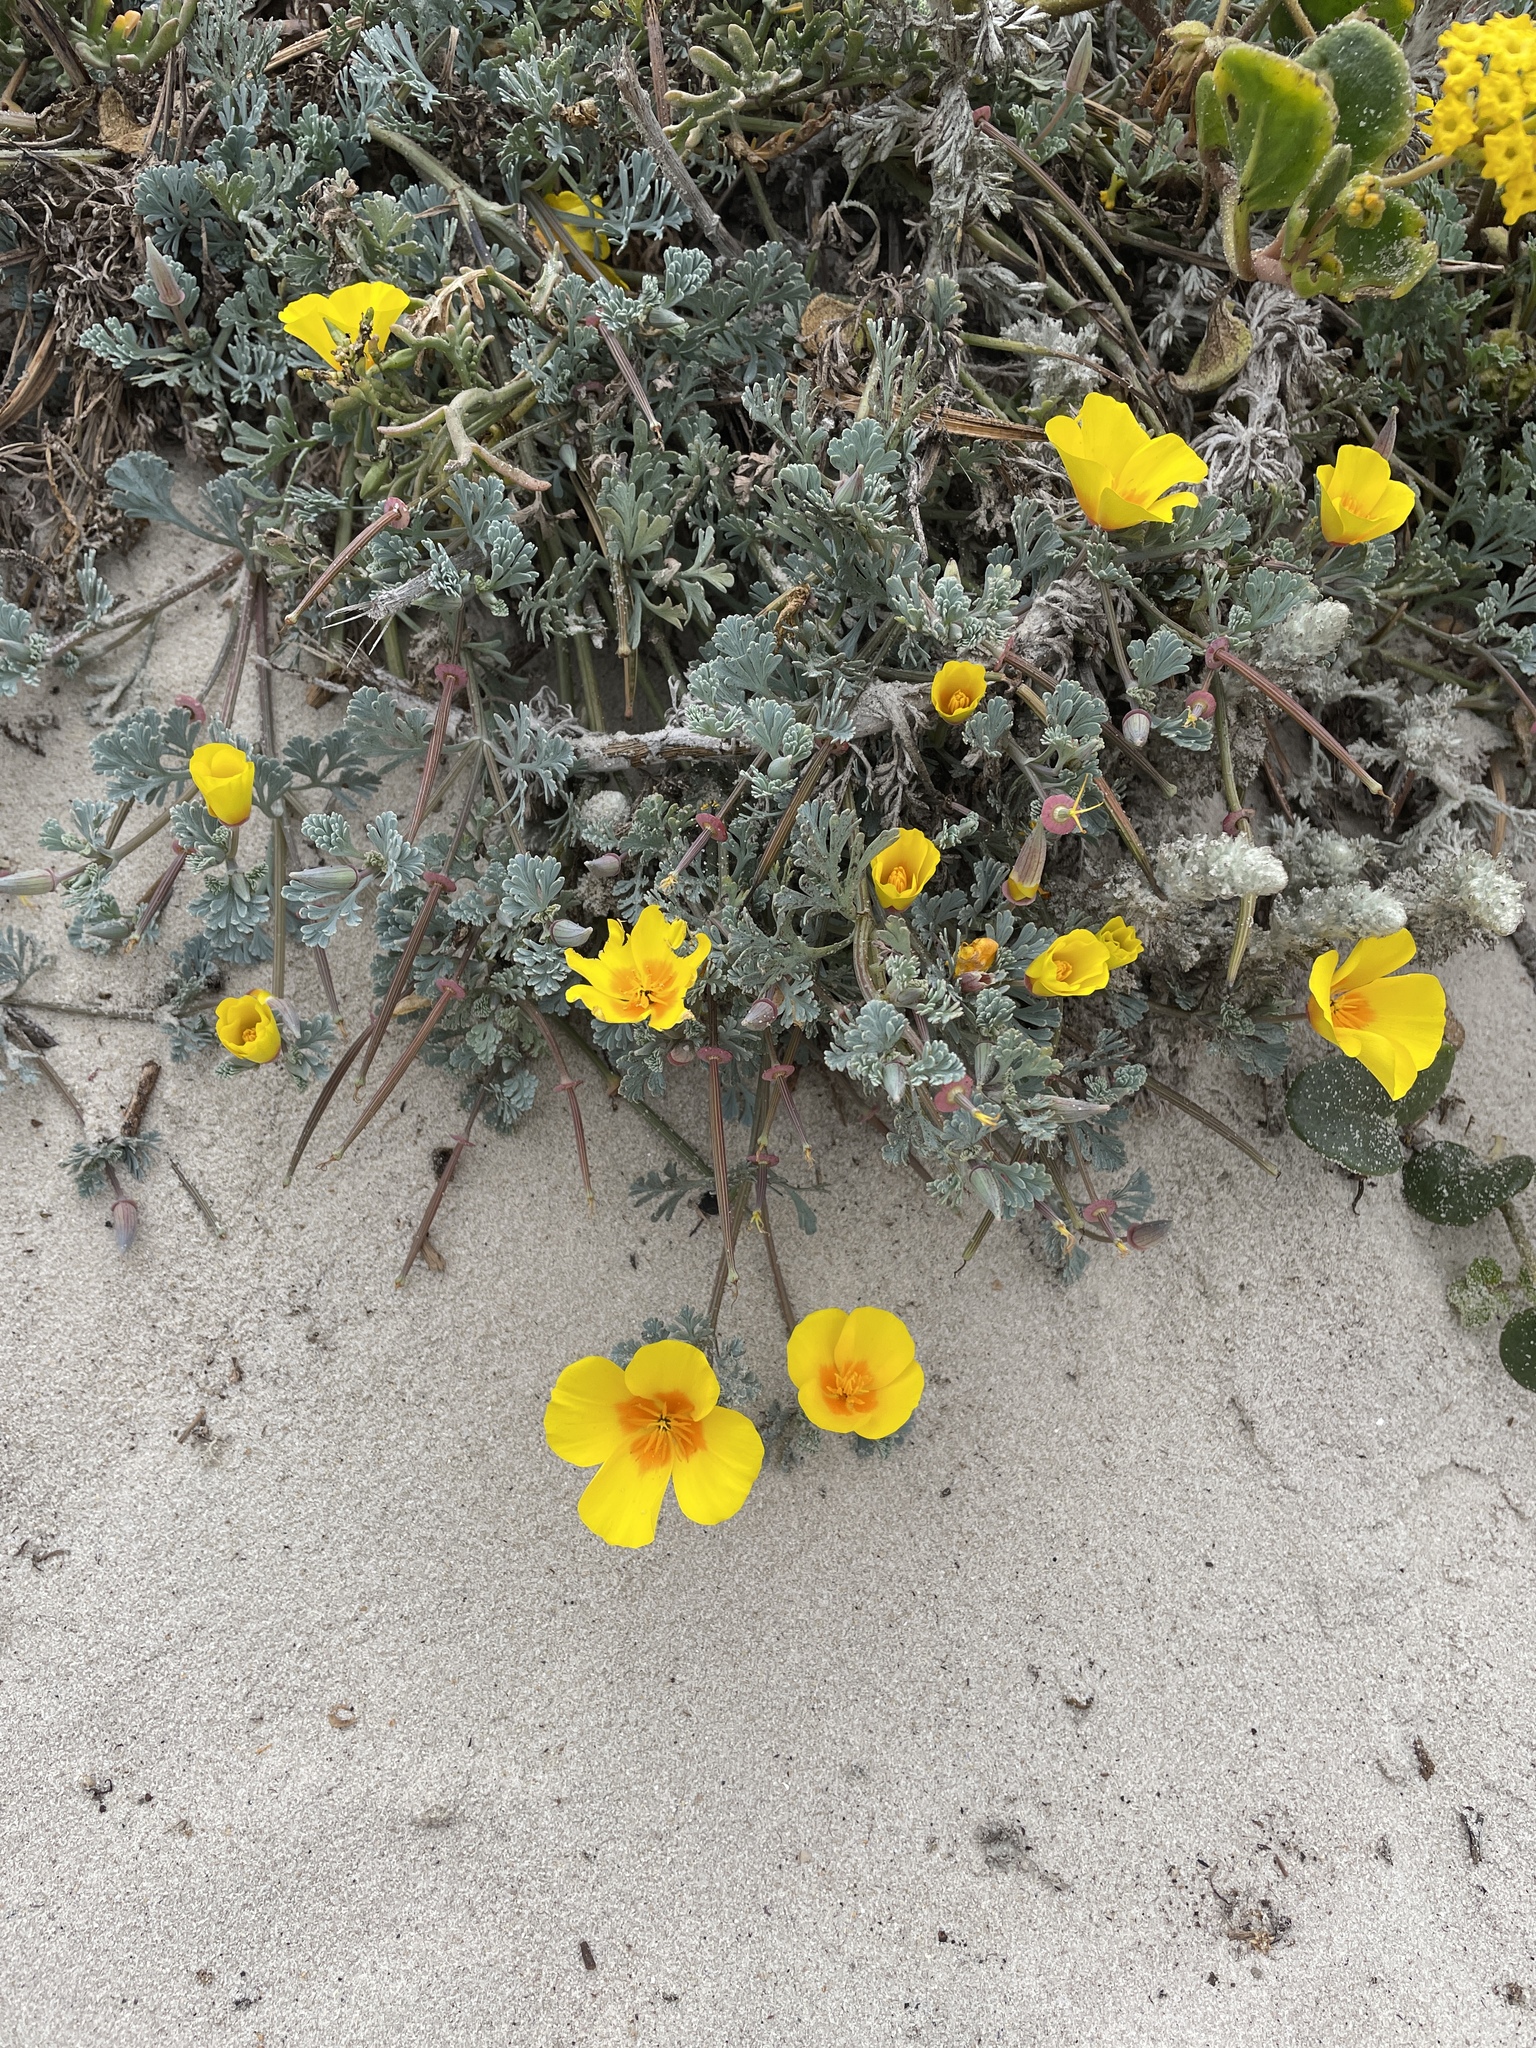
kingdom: Plantae
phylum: Tracheophyta
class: Magnoliopsida
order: Ranunculales
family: Papaveraceae
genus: Eschscholzia
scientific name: Eschscholzia californica
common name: California poppy
